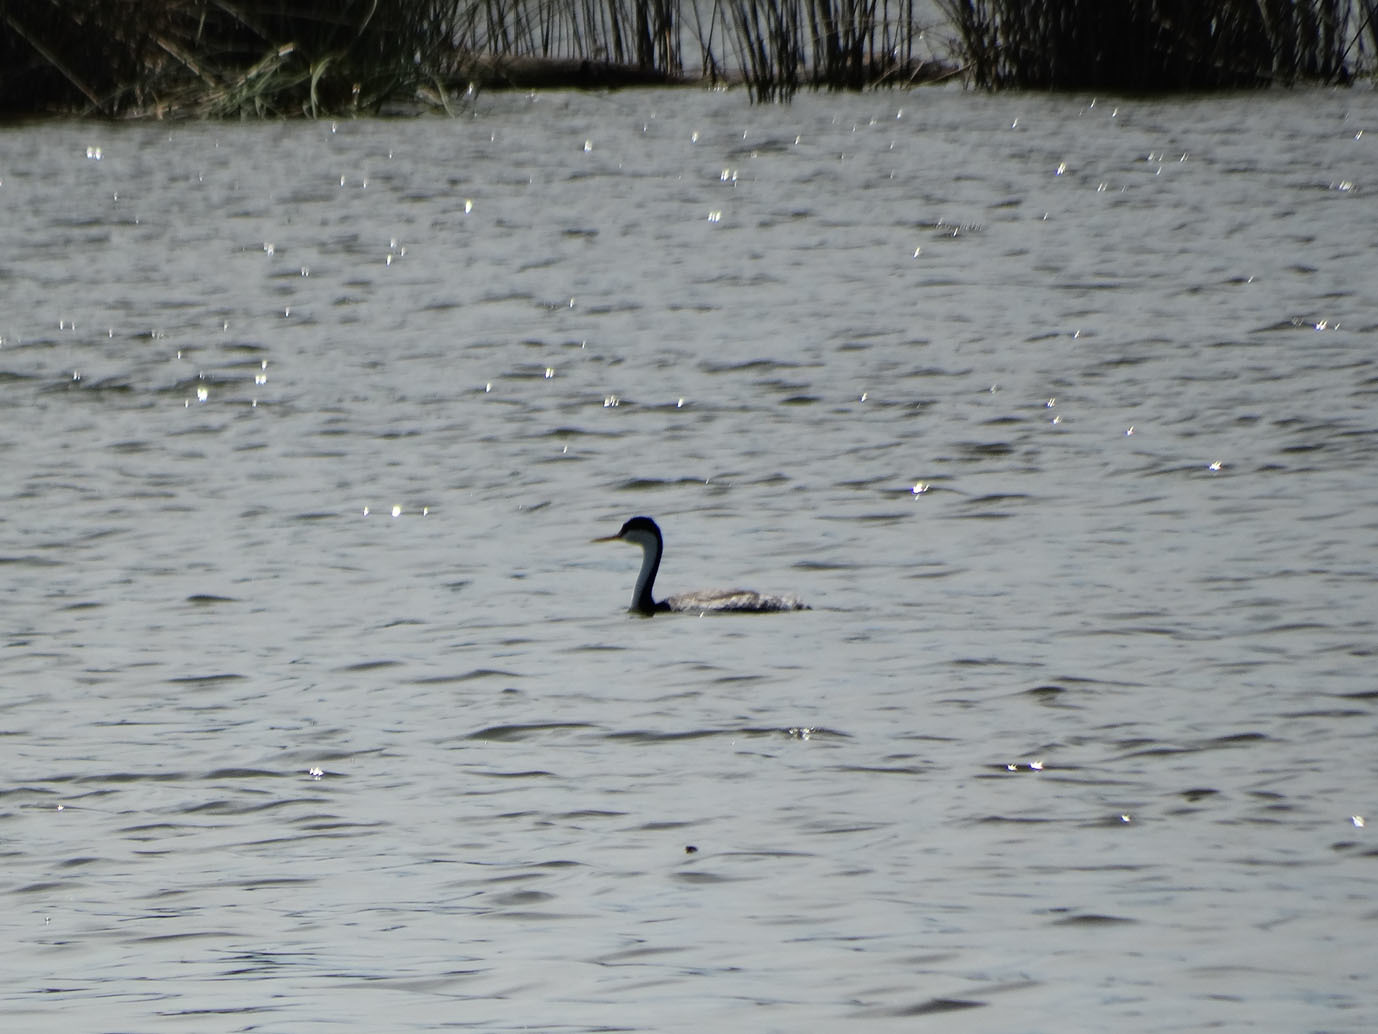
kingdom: Animalia
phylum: Chordata
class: Aves
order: Podicipediformes
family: Podicipedidae
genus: Aechmophorus
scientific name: Aechmophorus occidentalis
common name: Western grebe
